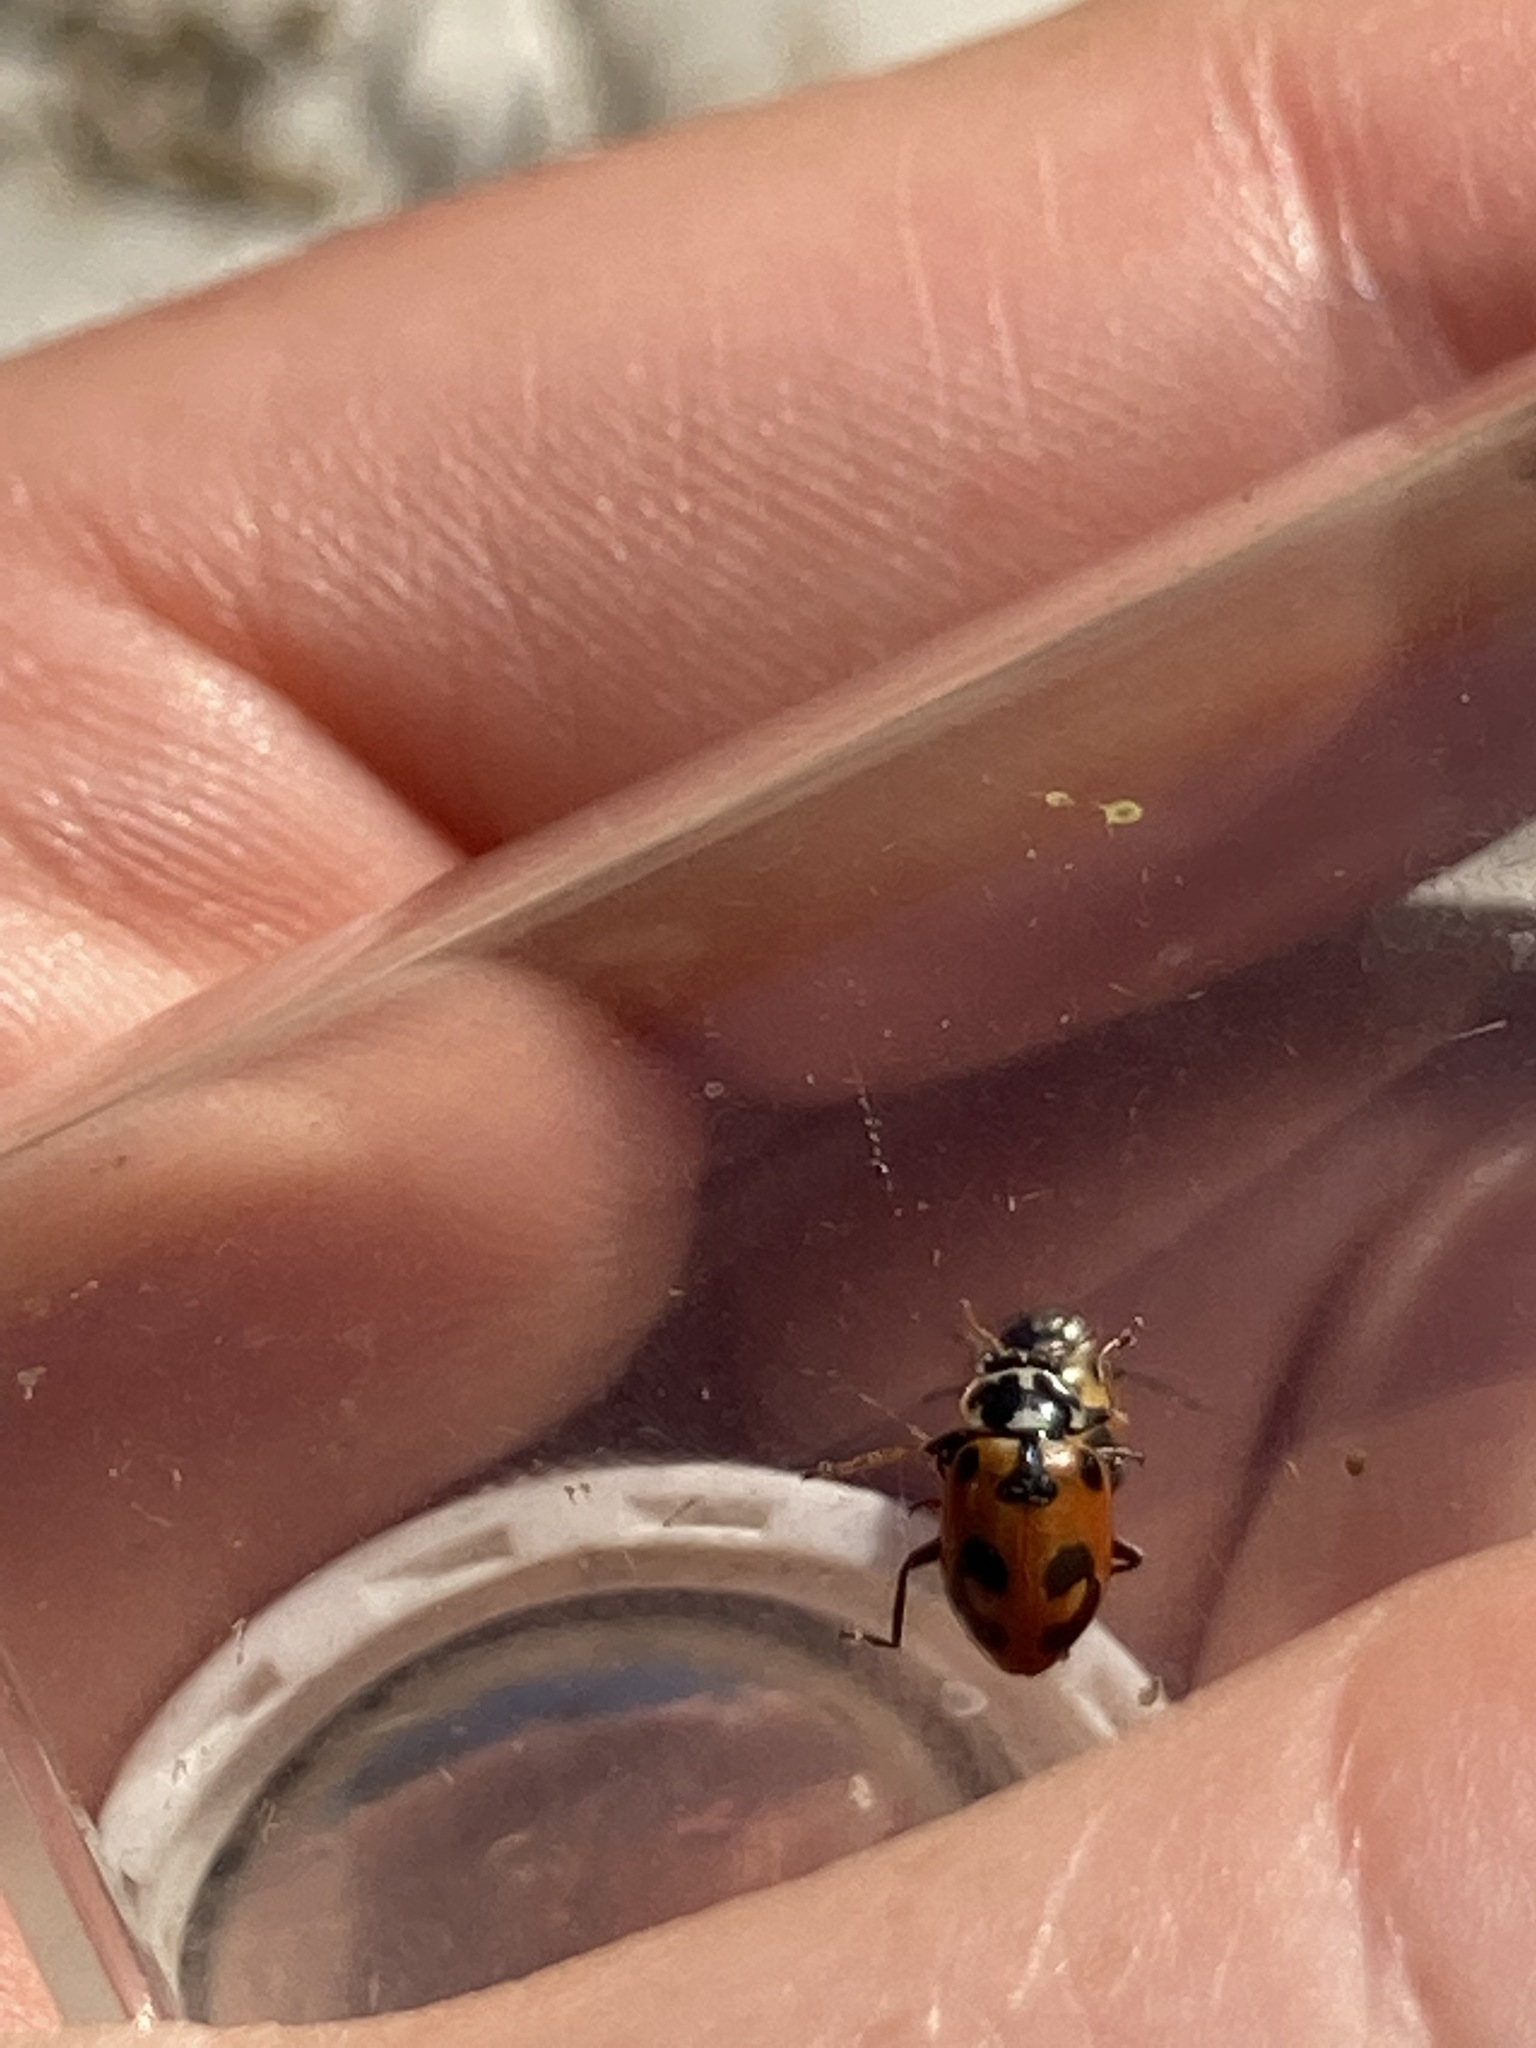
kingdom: Animalia
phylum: Arthropoda
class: Insecta
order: Coleoptera
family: Coccinellidae
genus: Hippodamia
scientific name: Hippodamia parenthesis
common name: Parenthesis lady beetle
